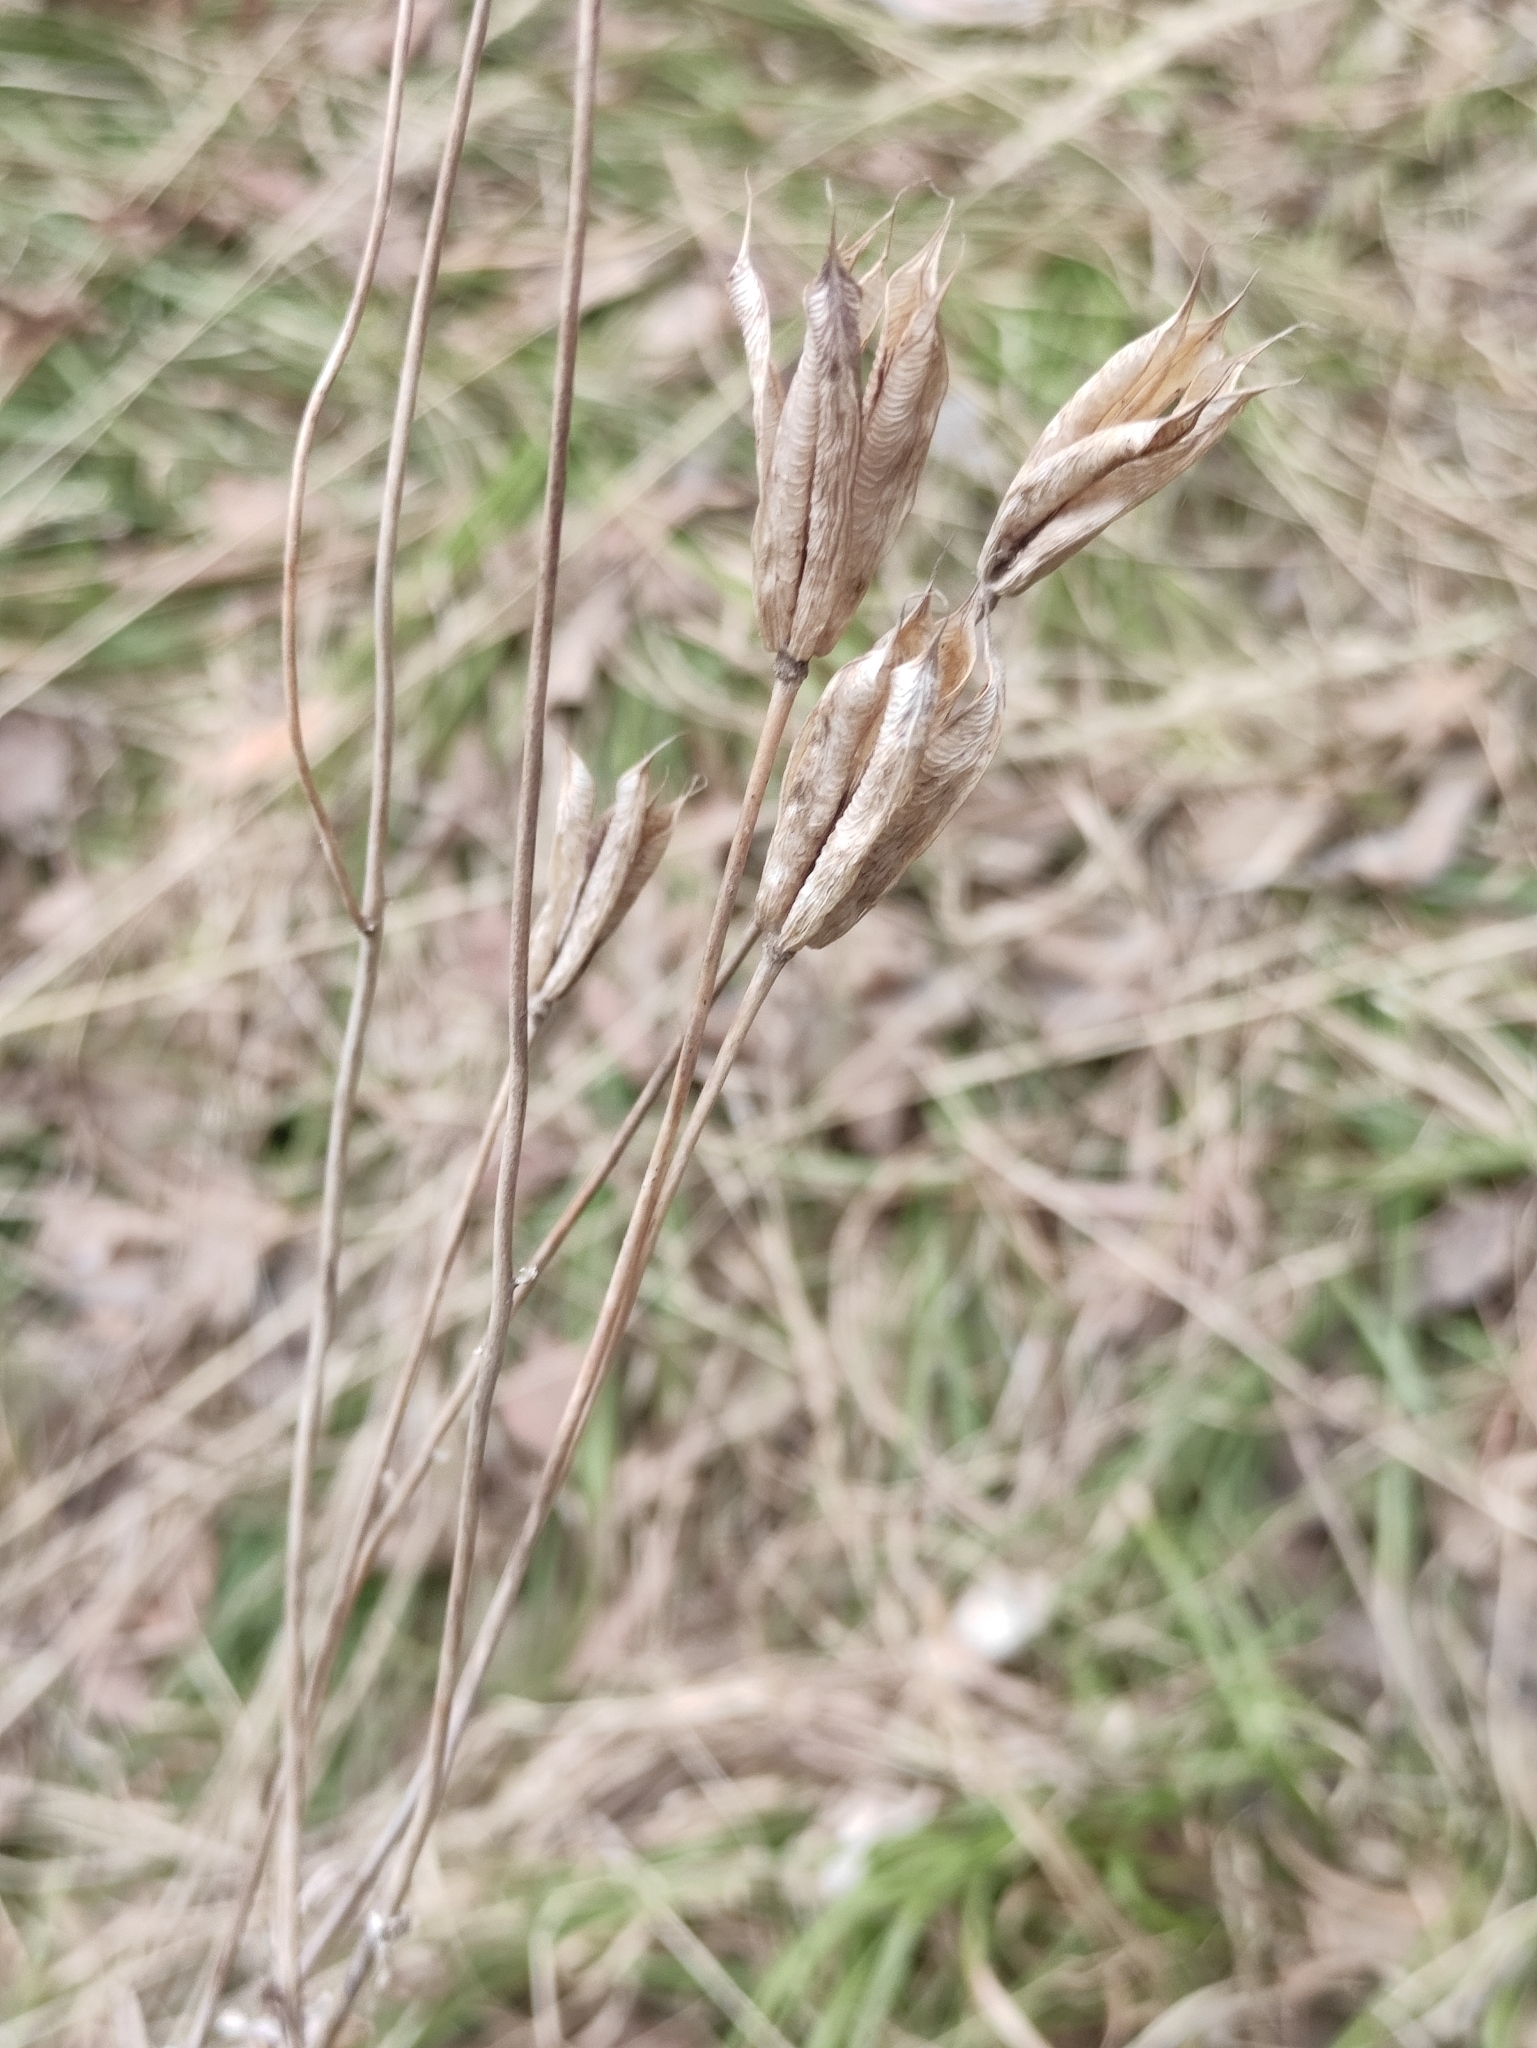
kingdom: Plantae
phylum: Tracheophyta
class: Magnoliopsida
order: Ranunculales
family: Ranunculaceae
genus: Aquilegia
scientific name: Aquilegia sibirica
